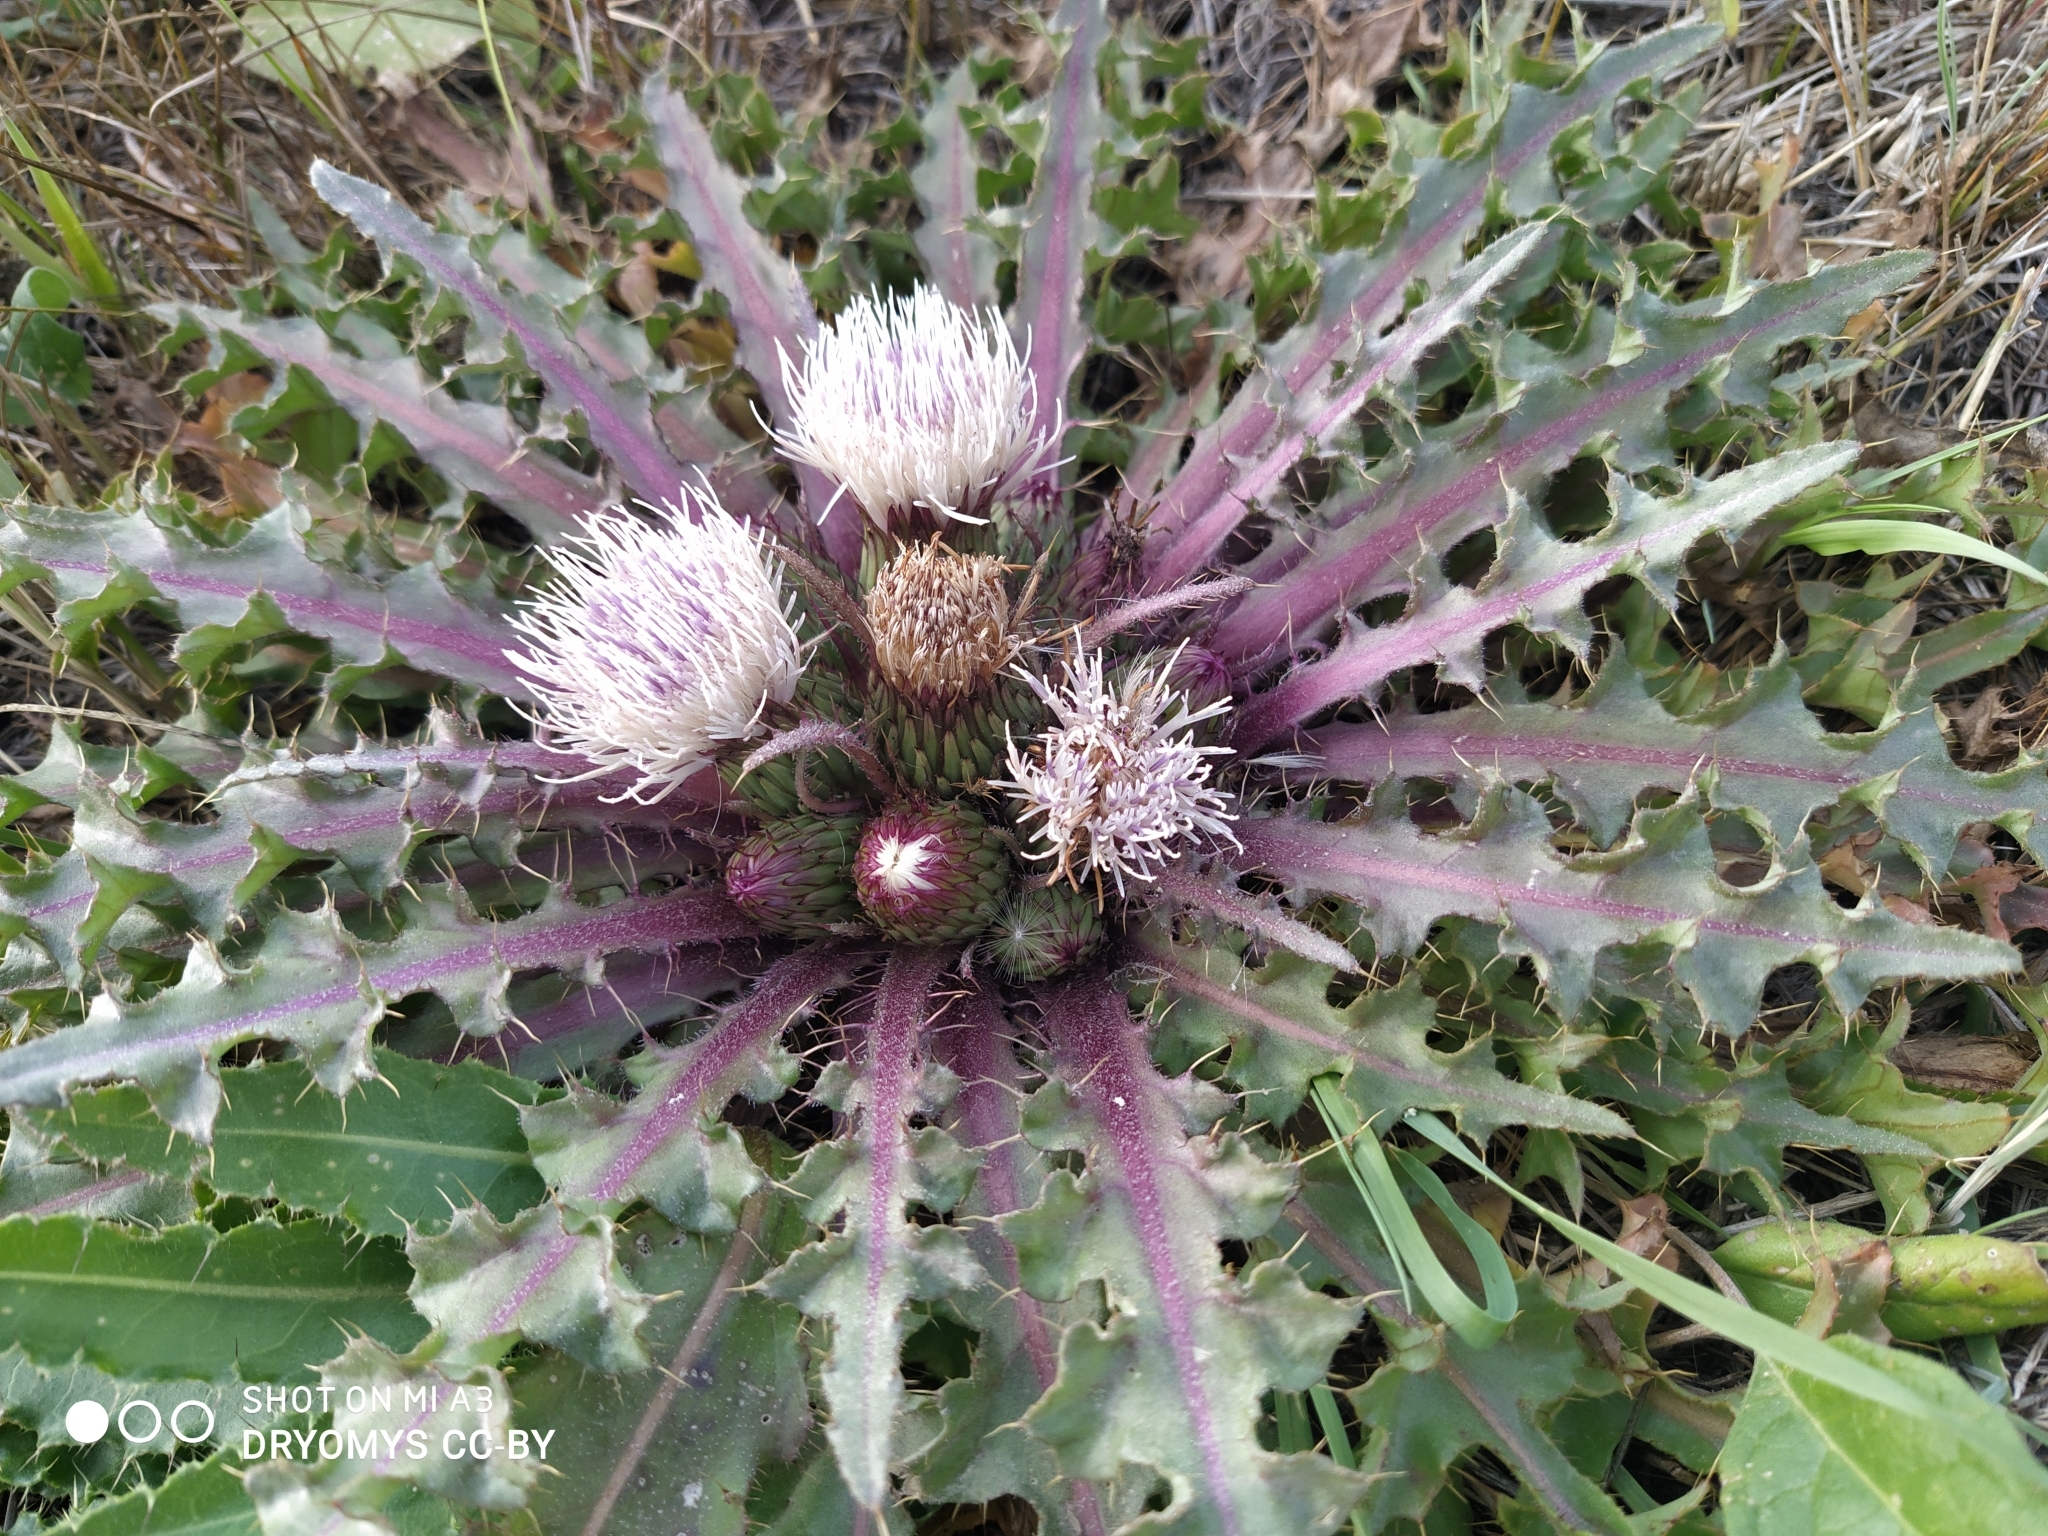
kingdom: Plantae
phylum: Tracheophyta
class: Magnoliopsida
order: Asterales
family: Asteraceae
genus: Cirsium
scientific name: Cirsium esculentum
